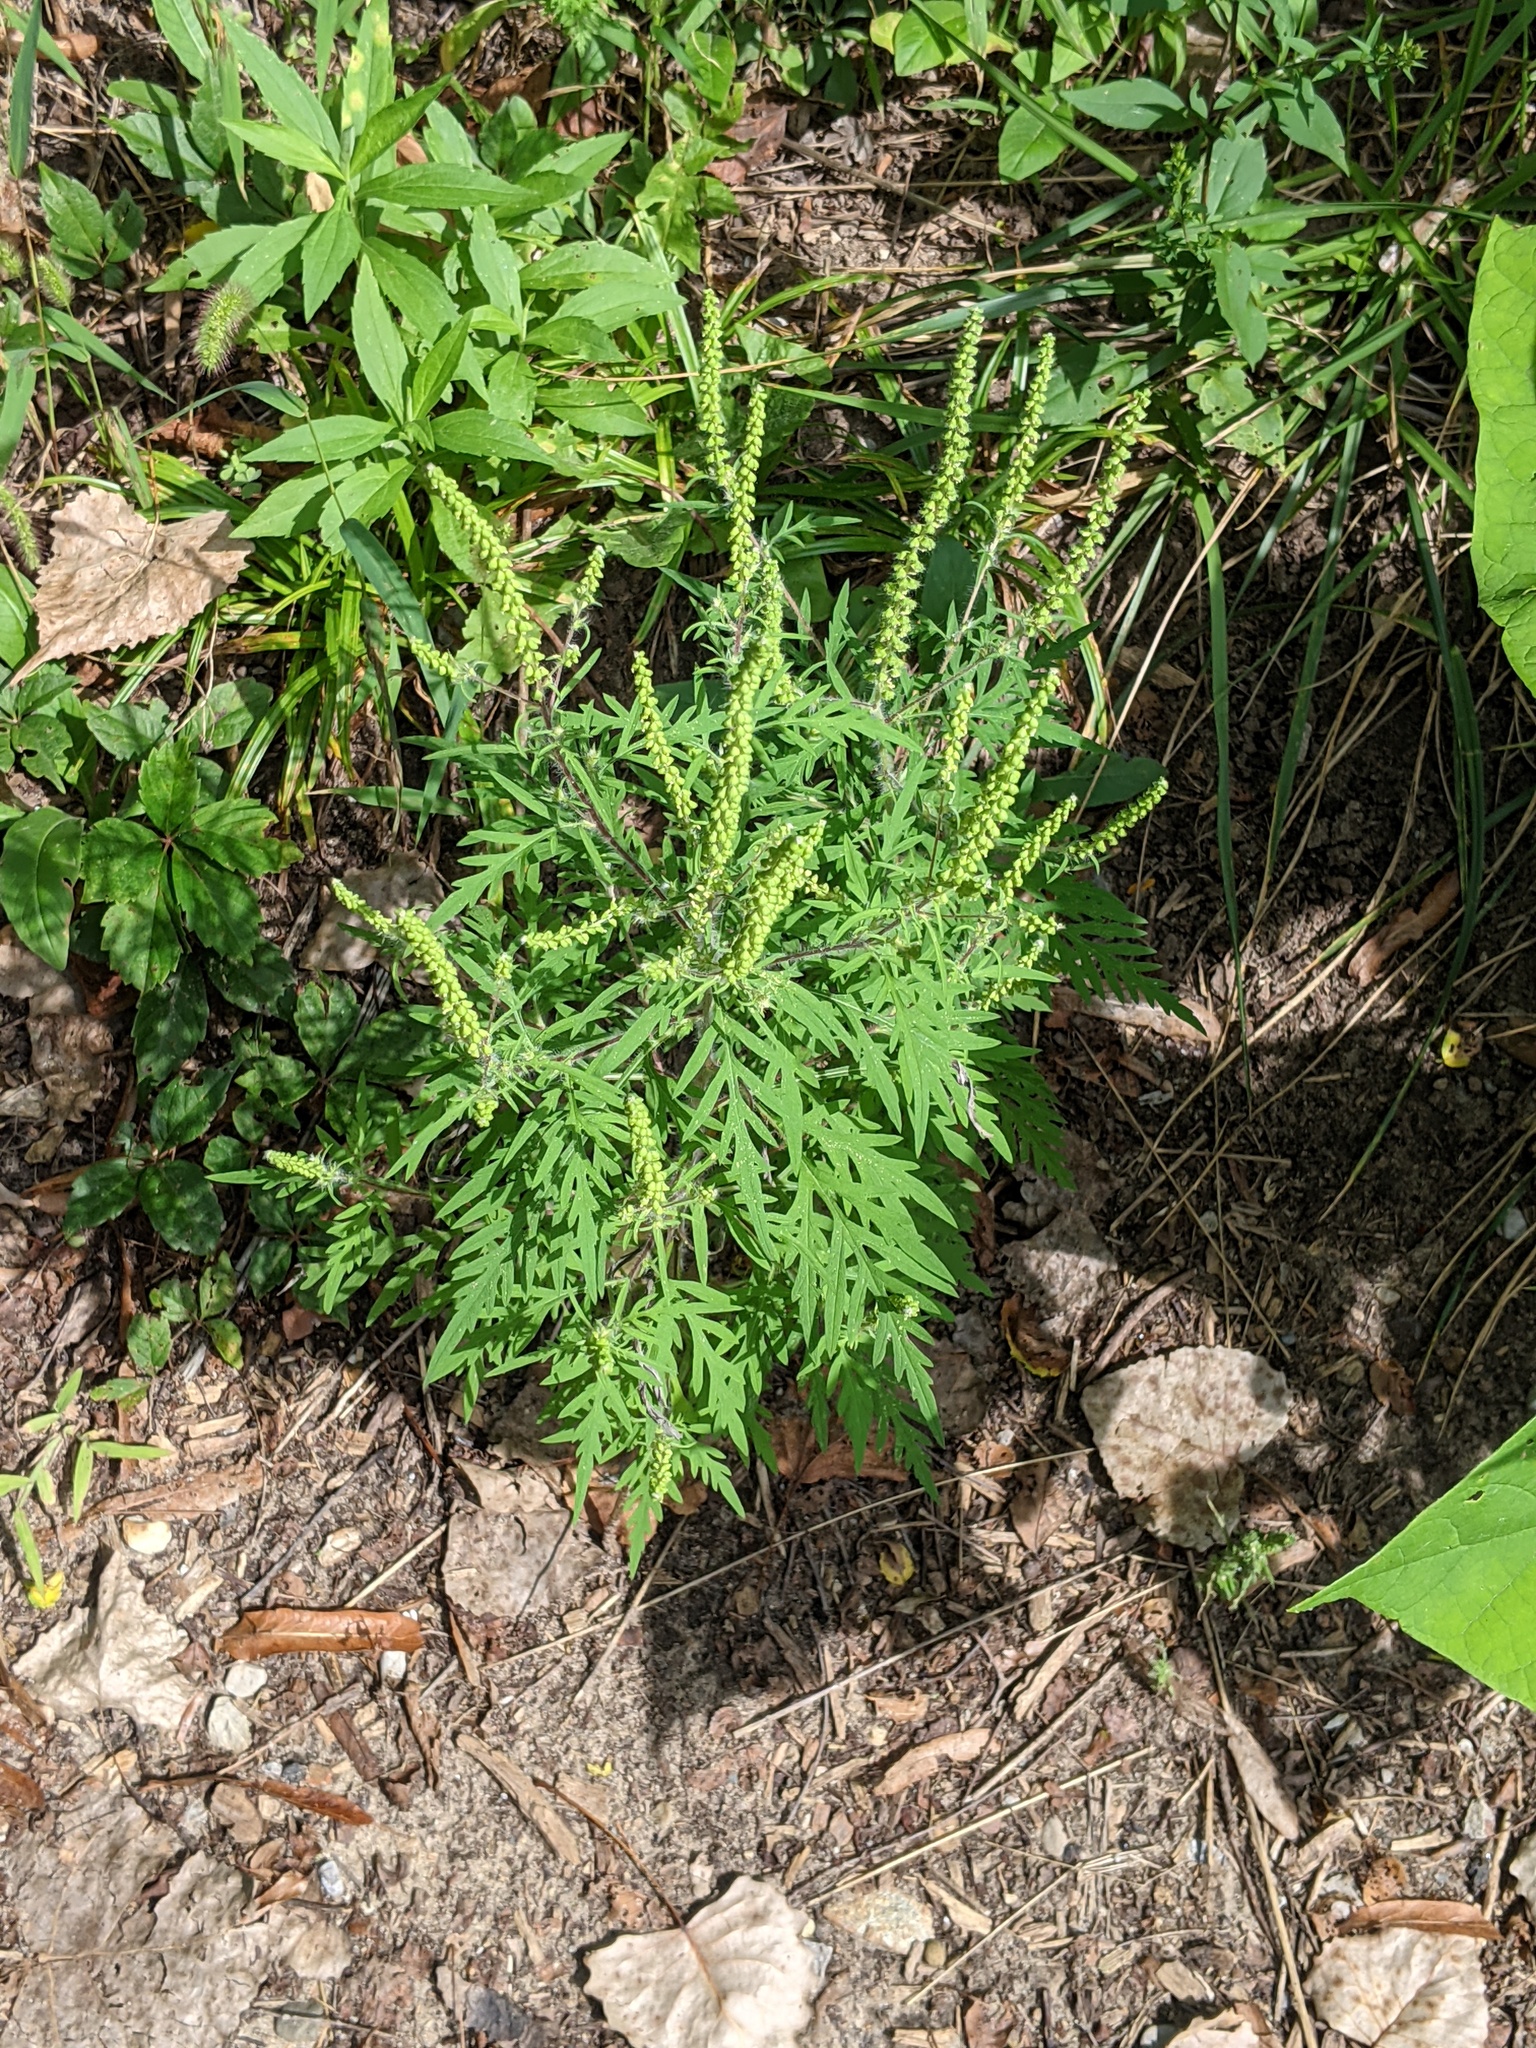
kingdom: Plantae
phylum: Tracheophyta
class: Magnoliopsida
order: Asterales
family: Asteraceae
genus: Ambrosia
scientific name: Ambrosia artemisiifolia
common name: Annual ragweed
